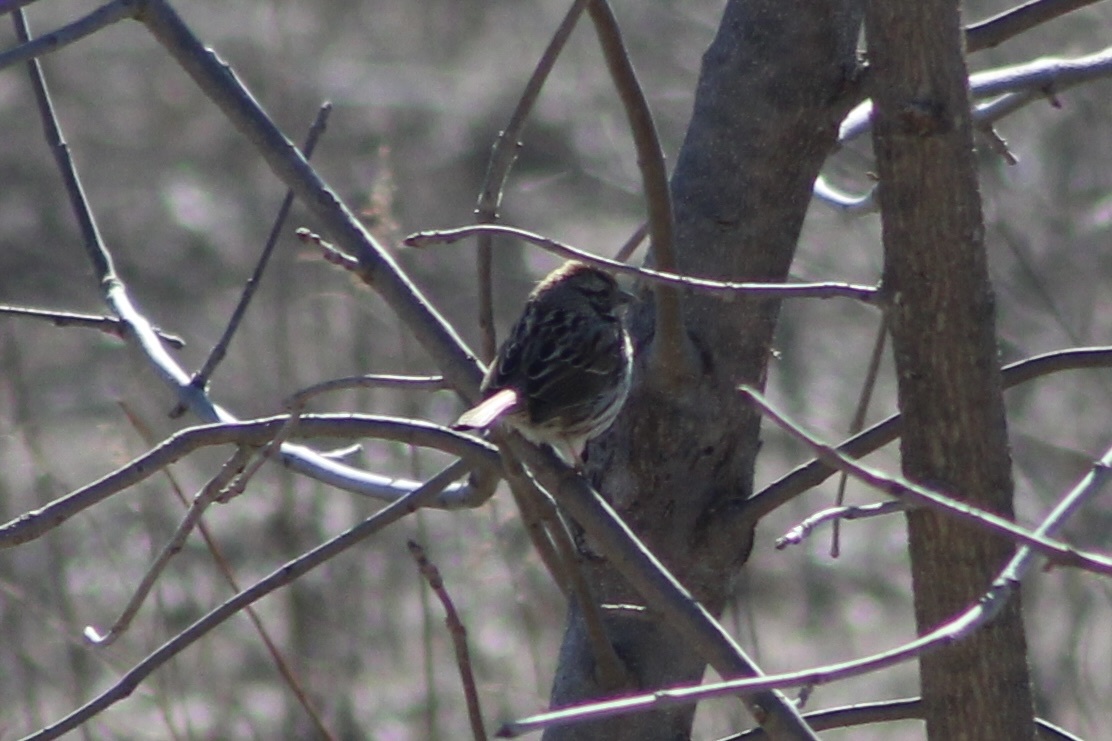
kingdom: Animalia
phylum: Chordata
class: Aves
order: Passeriformes
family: Passerellidae
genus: Melospiza
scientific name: Melospiza melodia
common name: Song sparrow
